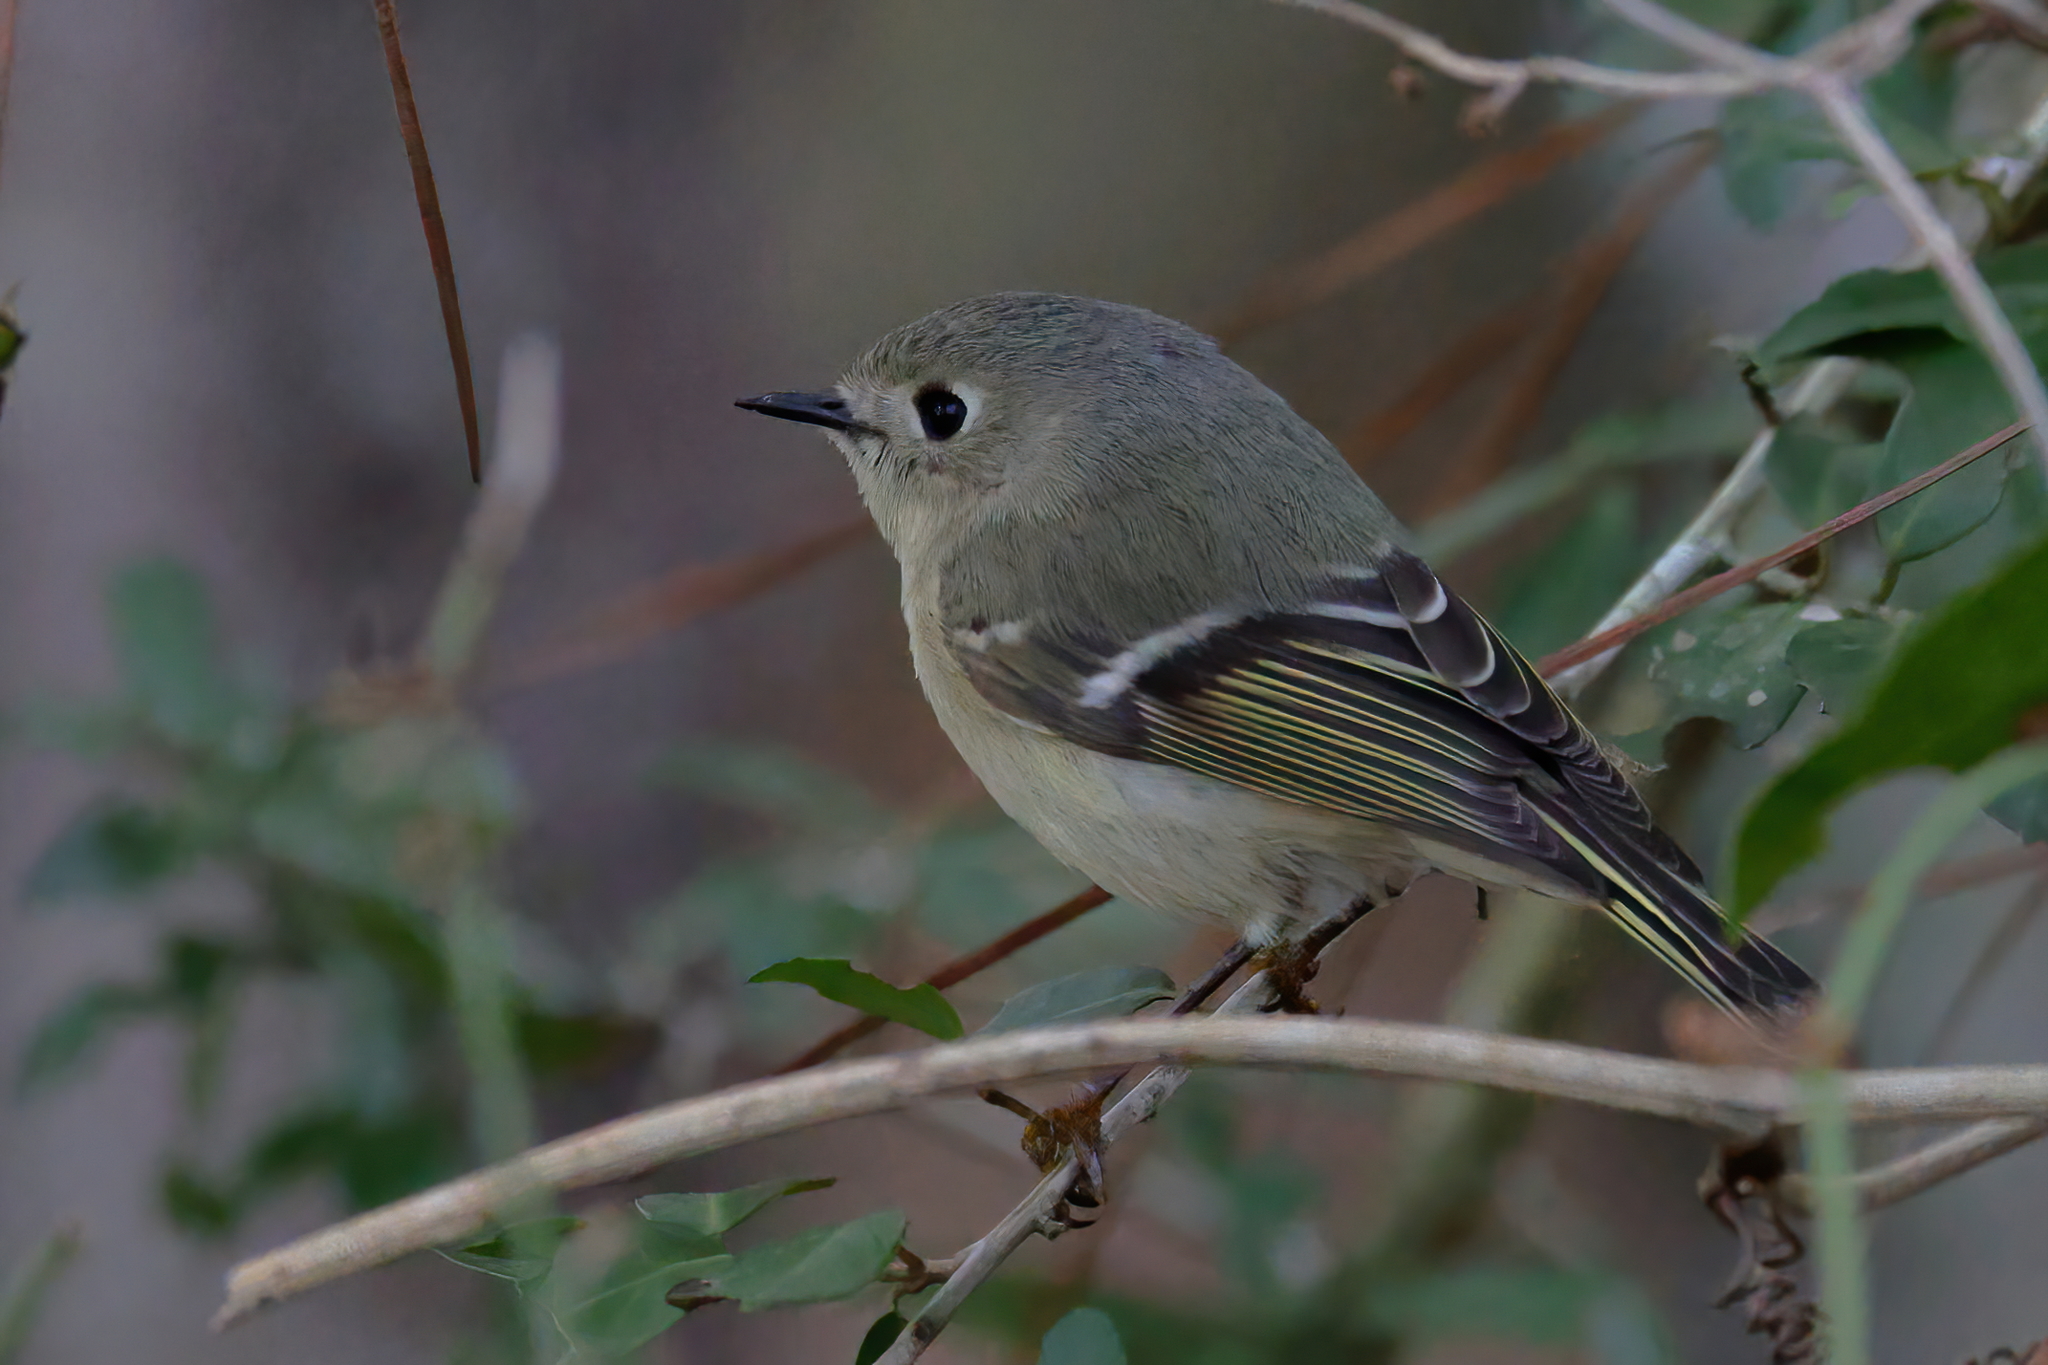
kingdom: Animalia
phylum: Chordata
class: Aves
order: Passeriformes
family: Regulidae
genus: Regulus
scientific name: Regulus calendula
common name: Ruby-crowned kinglet
